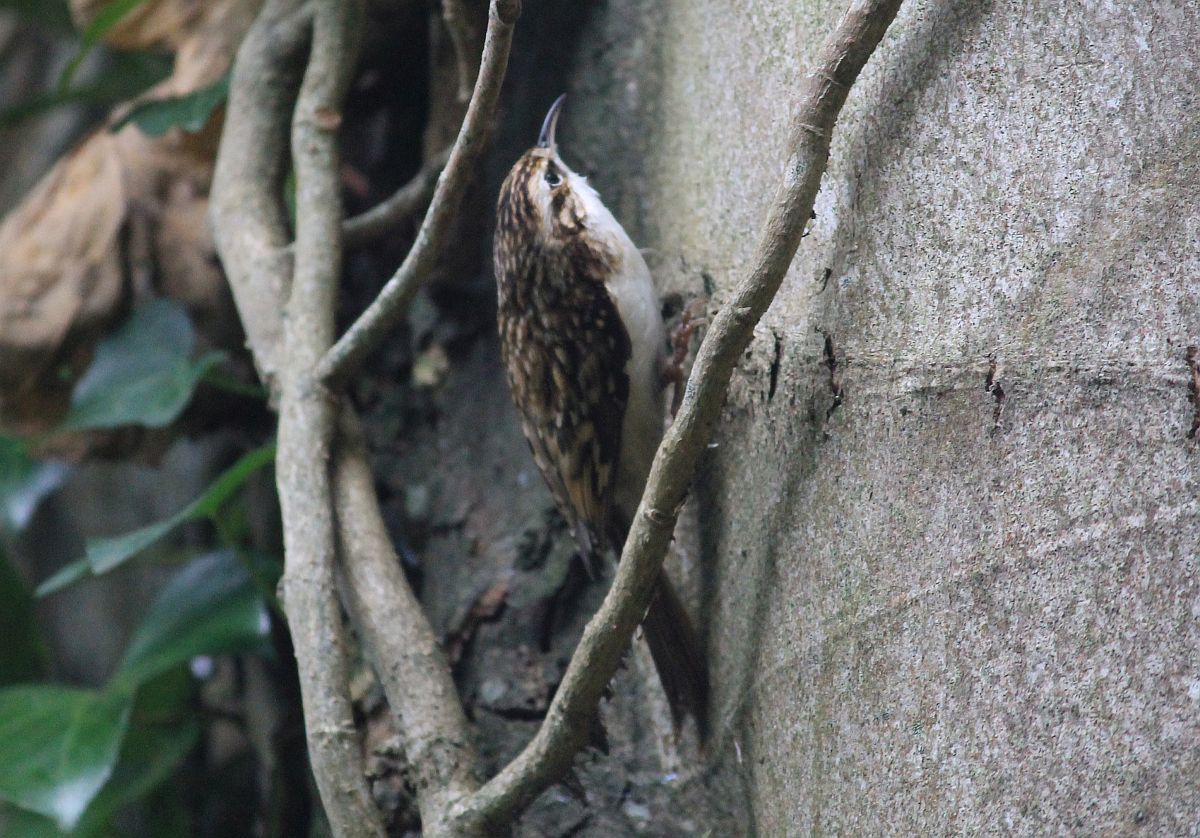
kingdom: Animalia
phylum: Chordata
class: Aves
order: Passeriformes
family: Certhiidae
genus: Certhia
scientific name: Certhia familiaris
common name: Eurasian treecreeper
